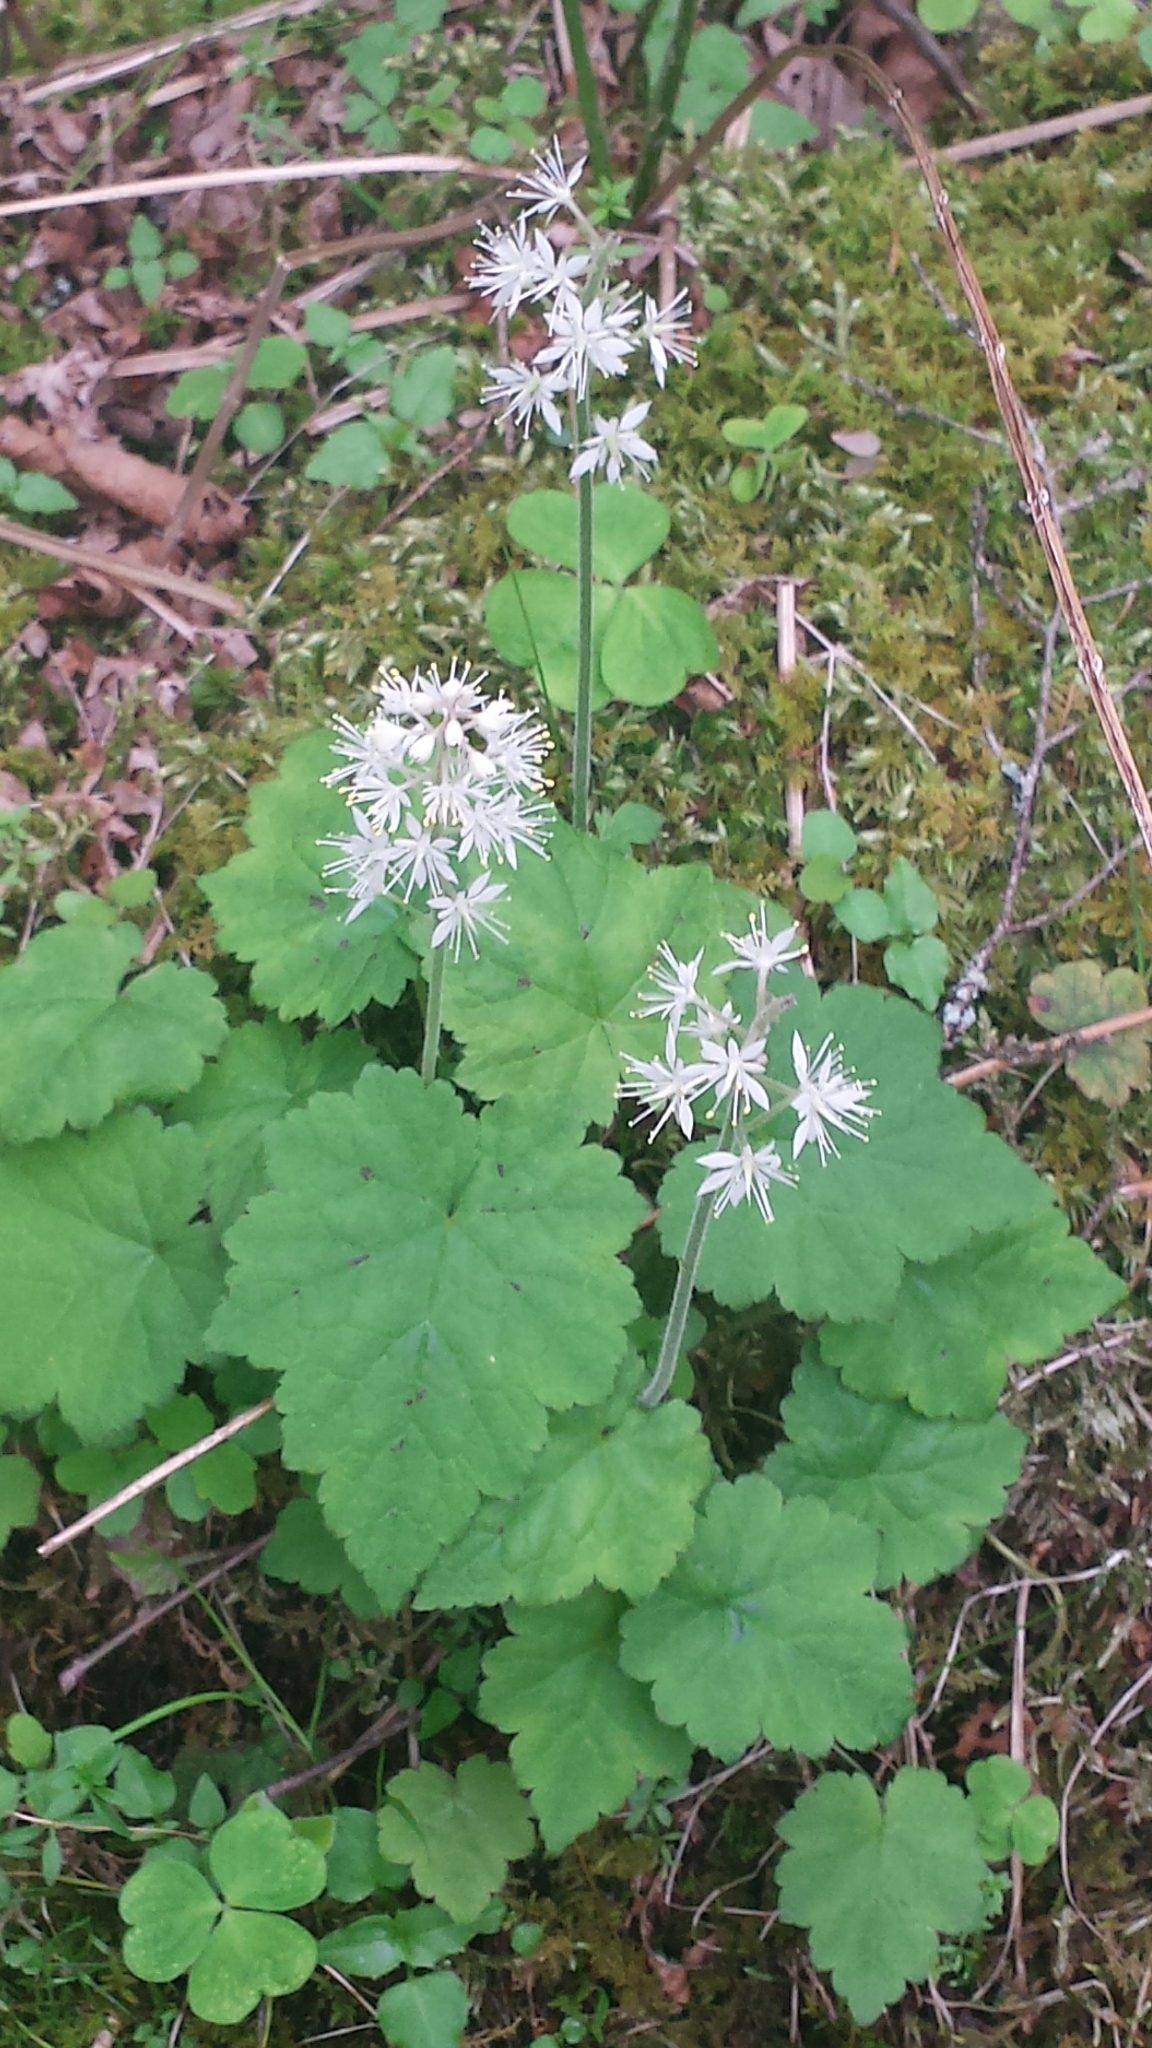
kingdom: Plantae
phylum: Tracheophyta
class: Magnoliopsida
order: Saxifragales
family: Saxifragaceae
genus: Tiarella
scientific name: Tiarella stolonifera
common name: Stoloniferous foamflower
